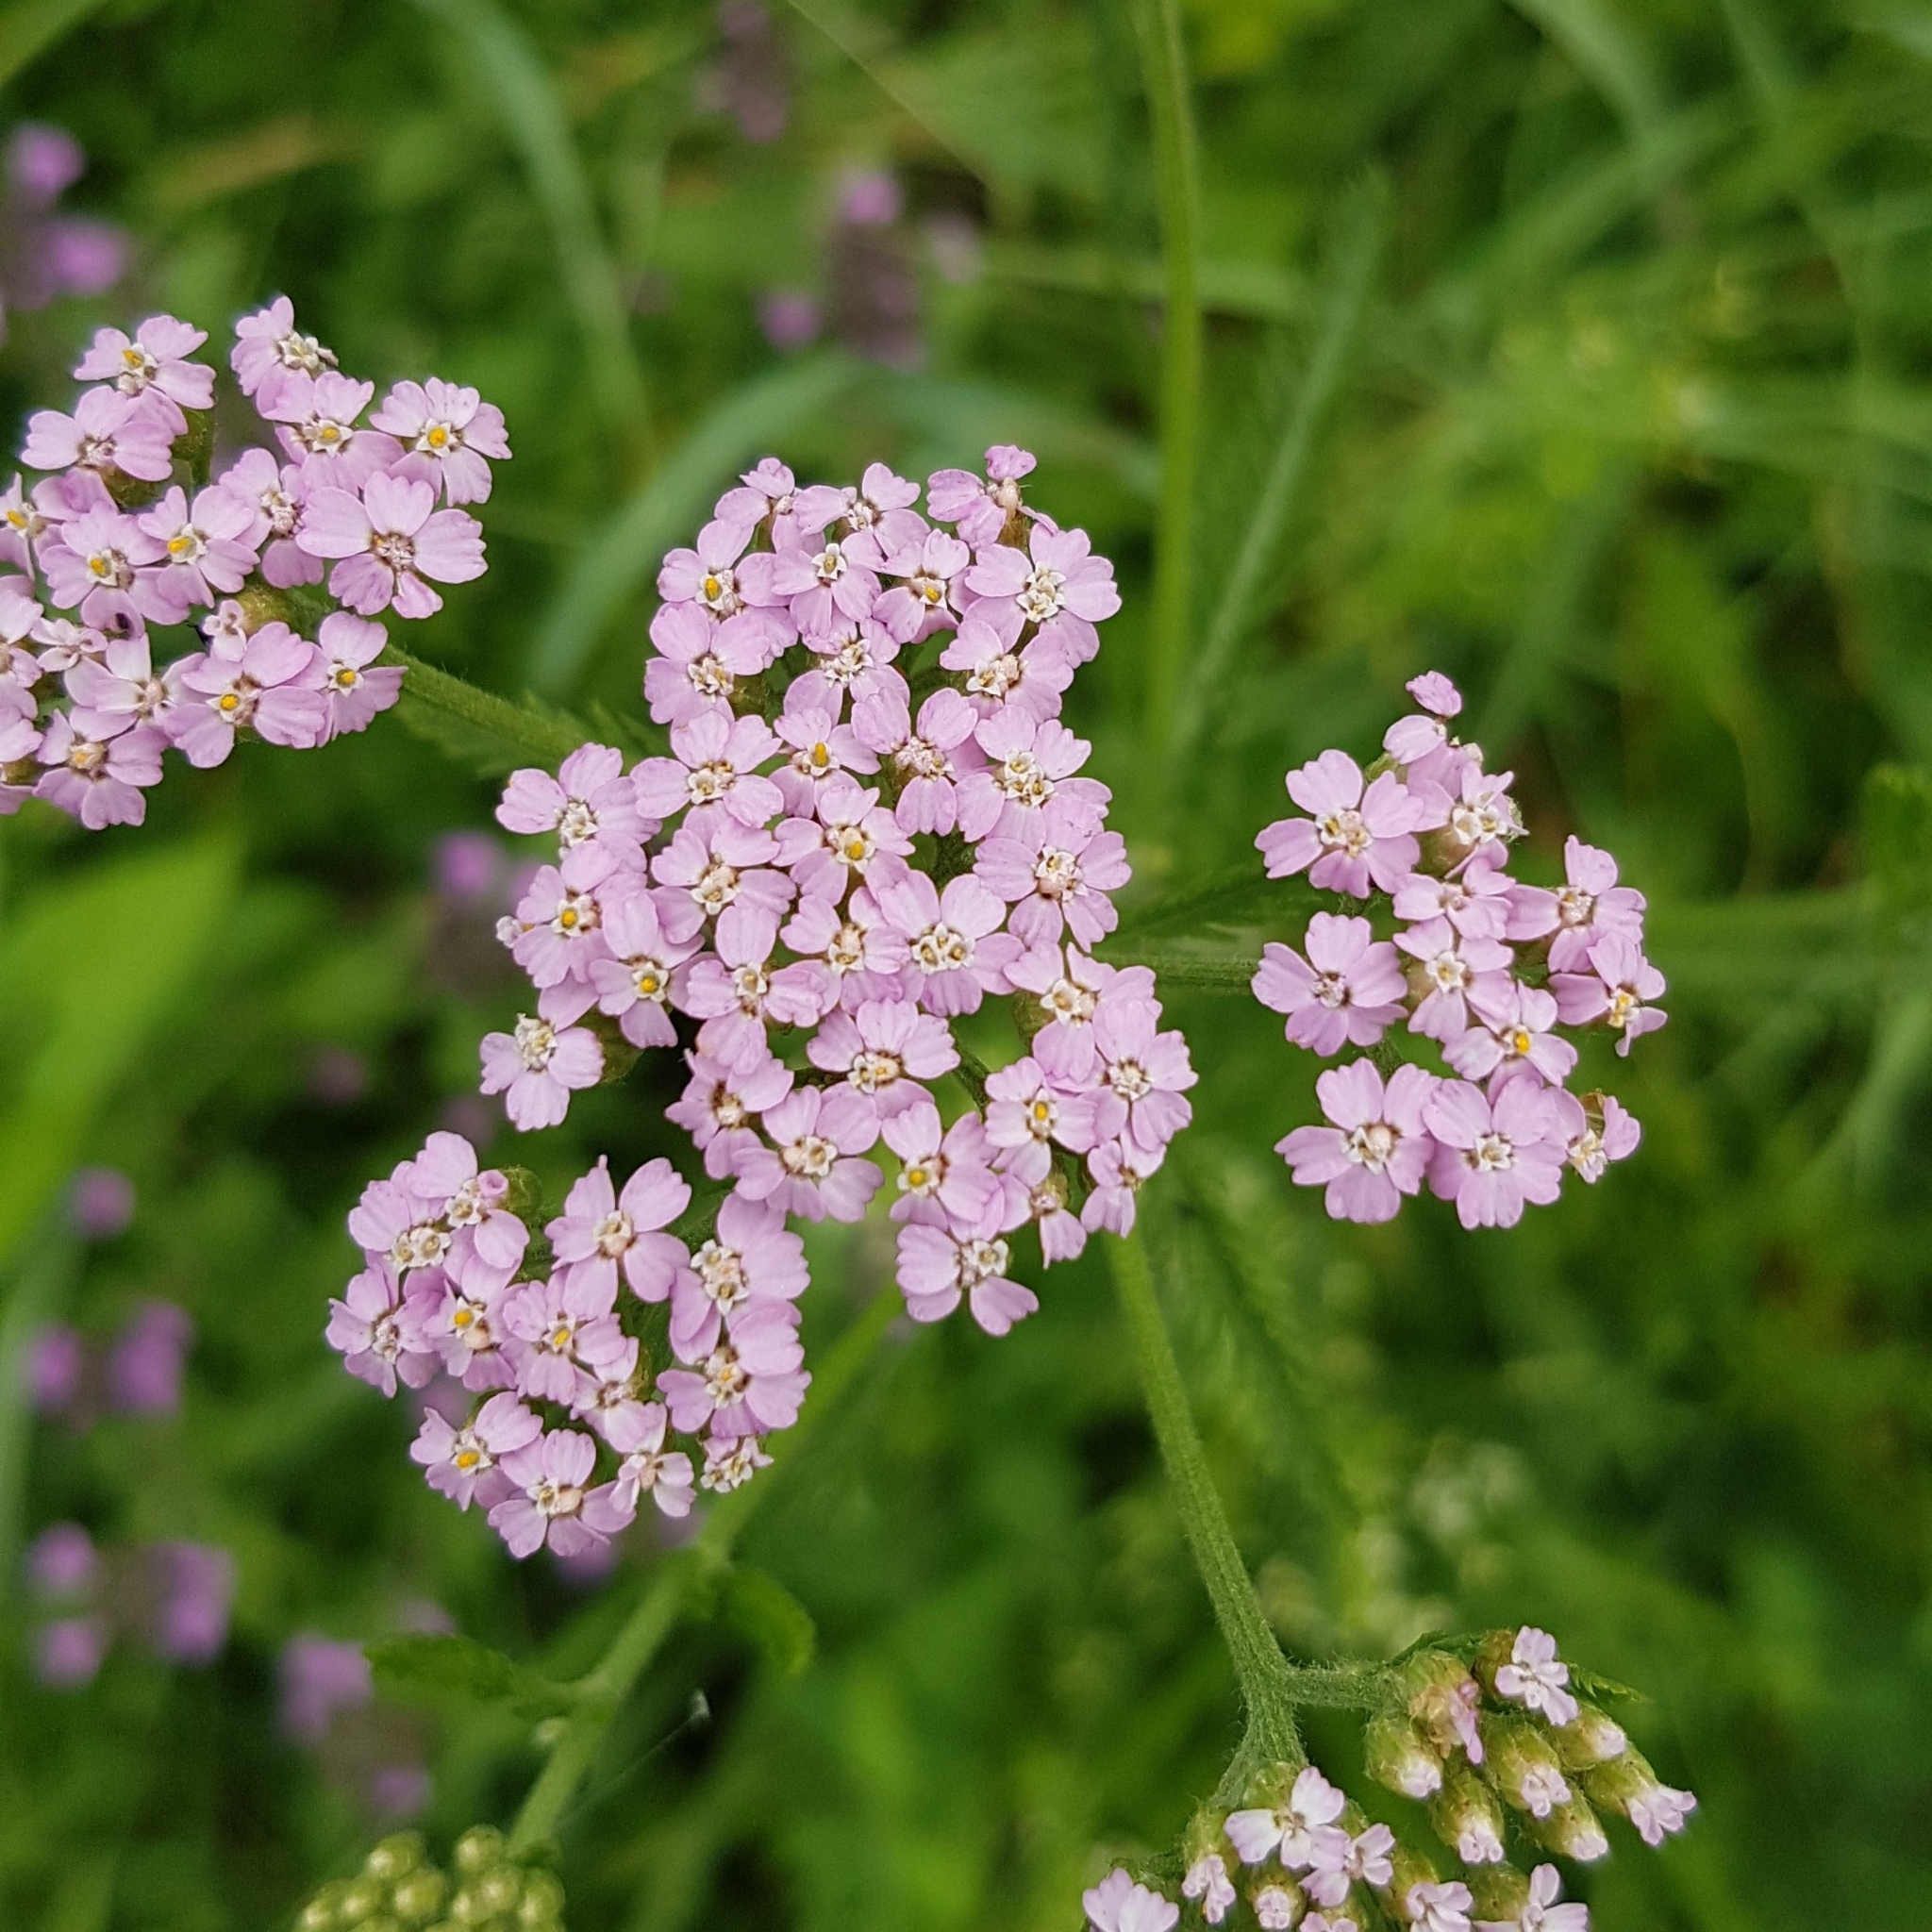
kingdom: Plantae
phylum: Tracheophyta
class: Magnoliopsida
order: Asterales
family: Asteraceae
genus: Achillea
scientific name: Achillea roseoalba
